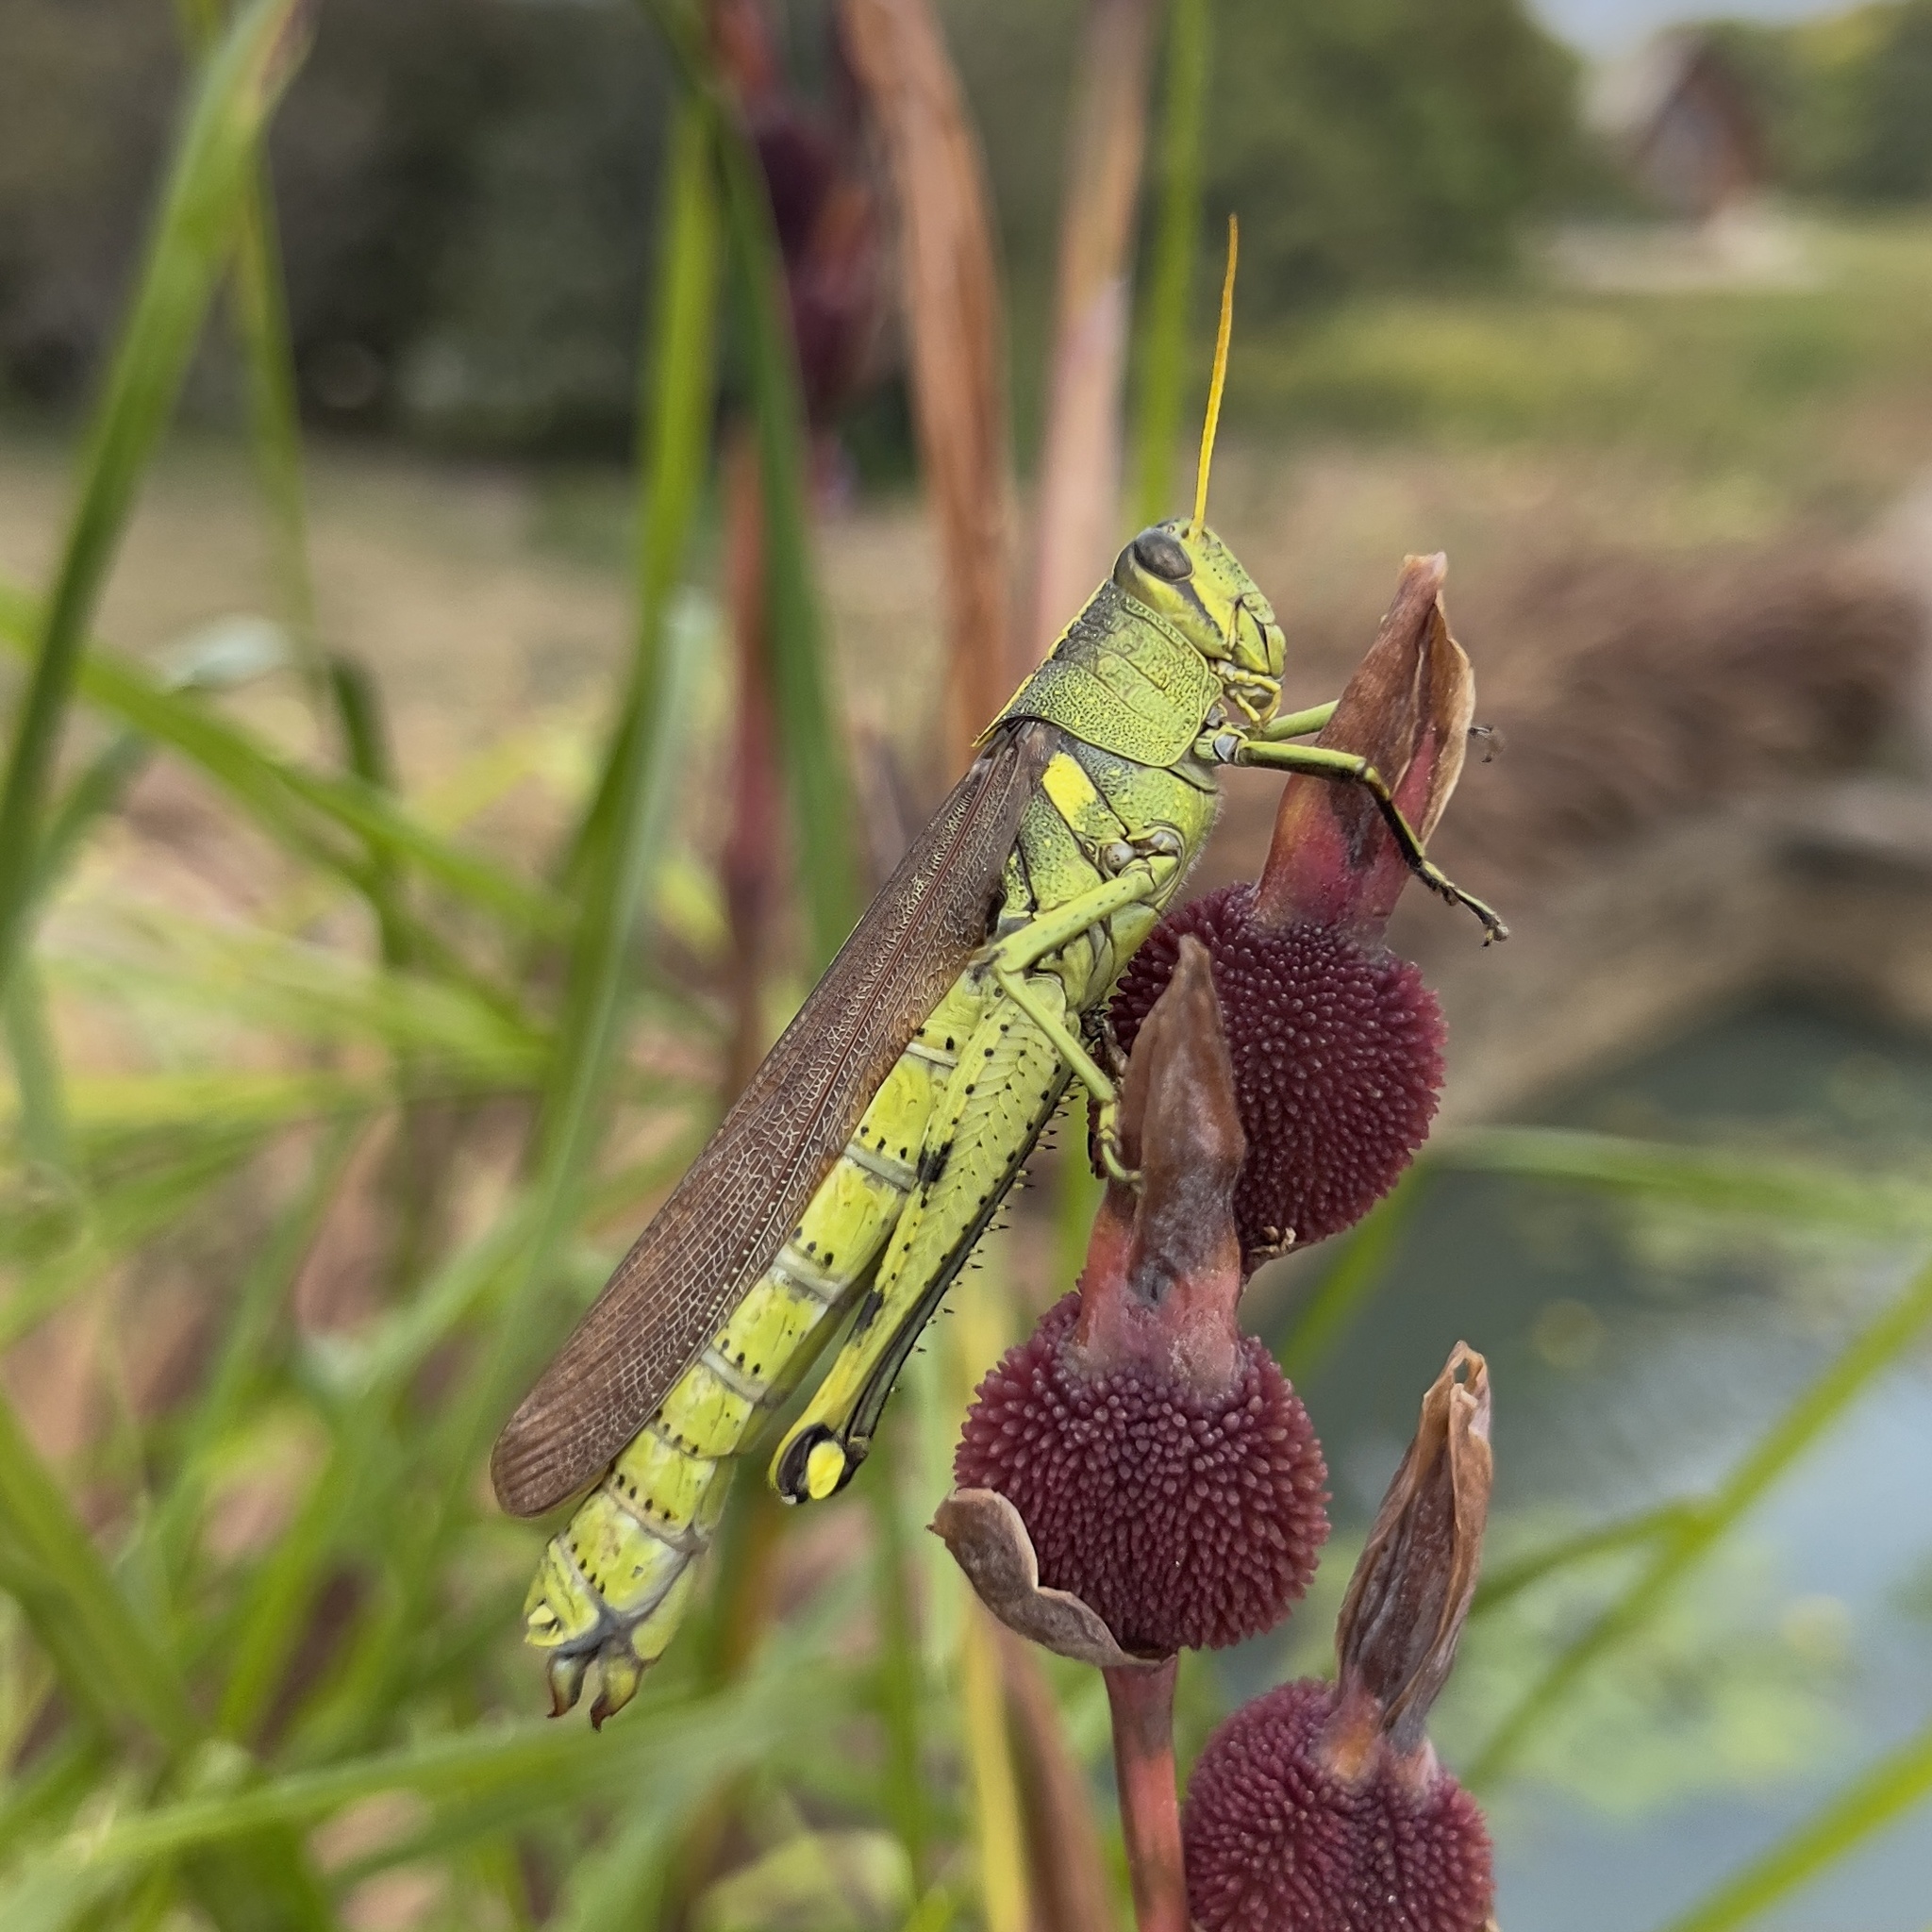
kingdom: Animalia
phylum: Arthropoda
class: Insecta
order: Orthoptera
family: Acrididae
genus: Schistocerca
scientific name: Schistocerca obscura
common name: Obscure bird grasshopper
